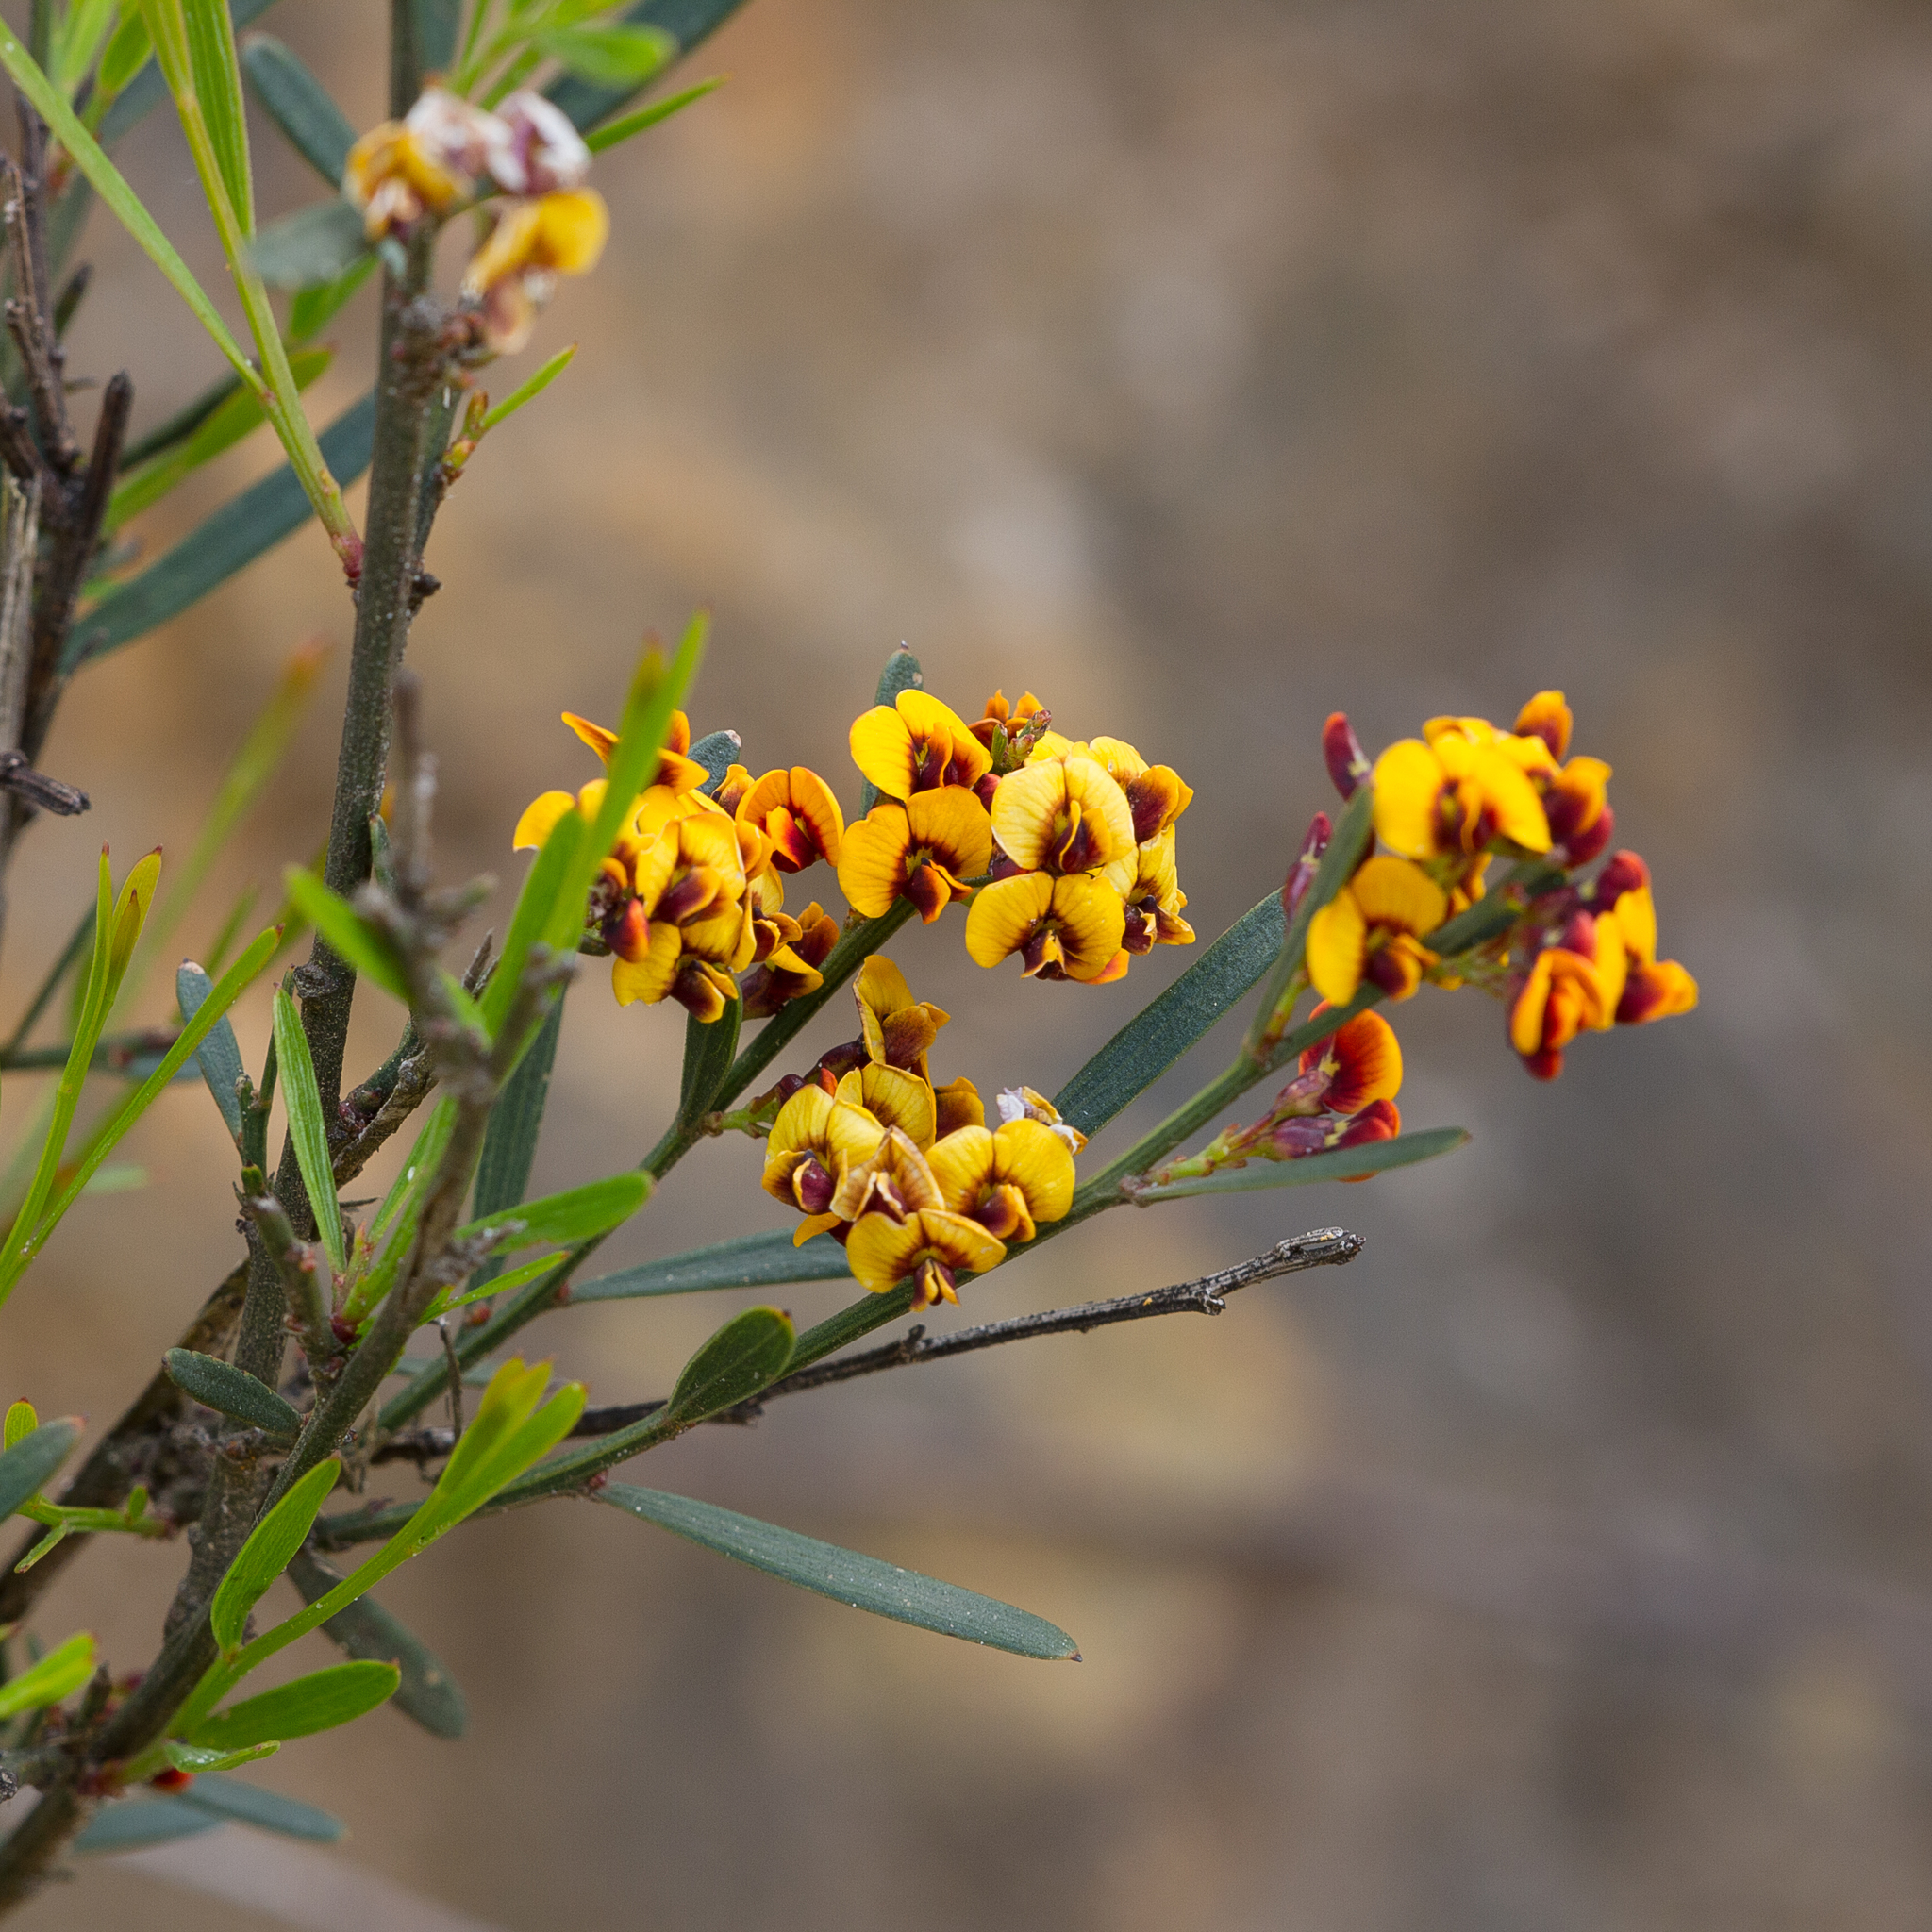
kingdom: Plantae
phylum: Tracheophyta
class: Magnoliopsida
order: Fabales
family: Fabaceae
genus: Daviesia
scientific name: Daviesia leptophylla
